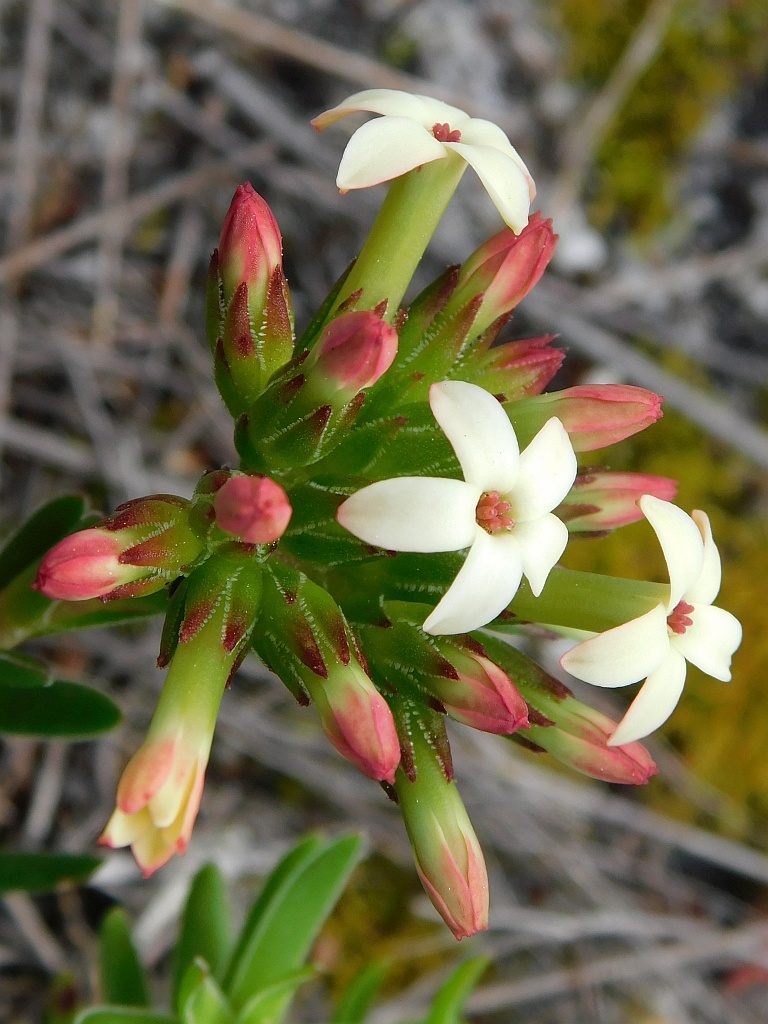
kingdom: Plantae
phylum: Tracheophyta
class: Magnoliopsida
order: Saxifragales
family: Crassulaceae
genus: Crassula
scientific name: Crassula fascicularis
